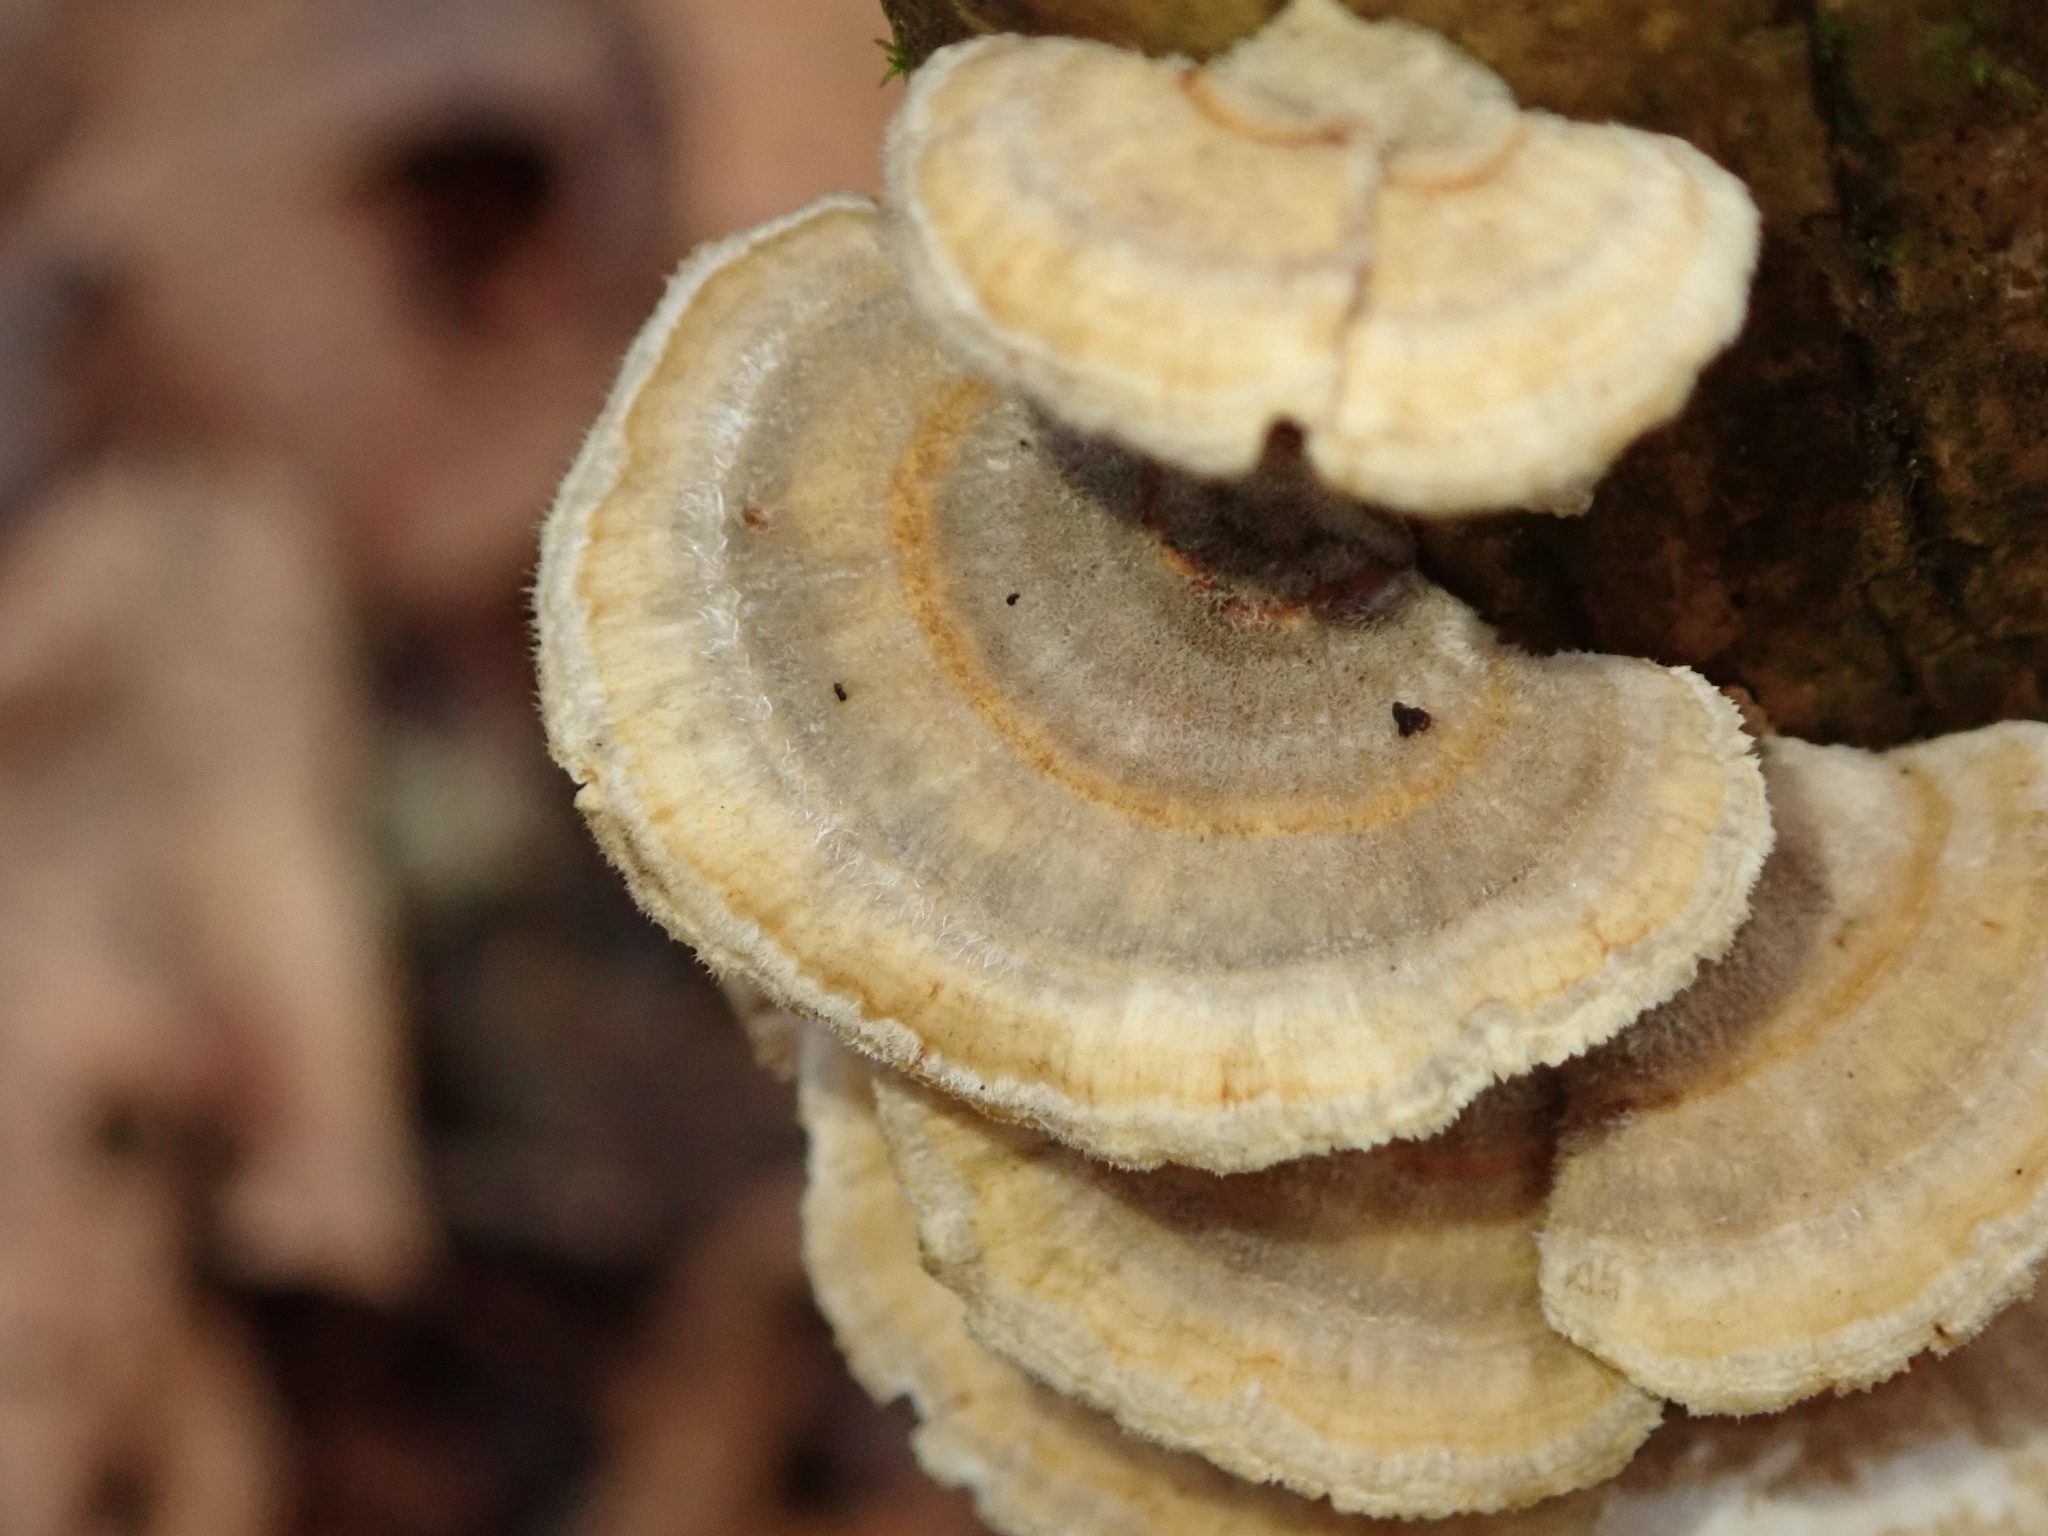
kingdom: Fungi
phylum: Basidiomycota
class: Agaricomycetes
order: Polyporales
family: Polyporaceae
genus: Trametes
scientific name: Trametes versicolor
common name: Turkeytail
